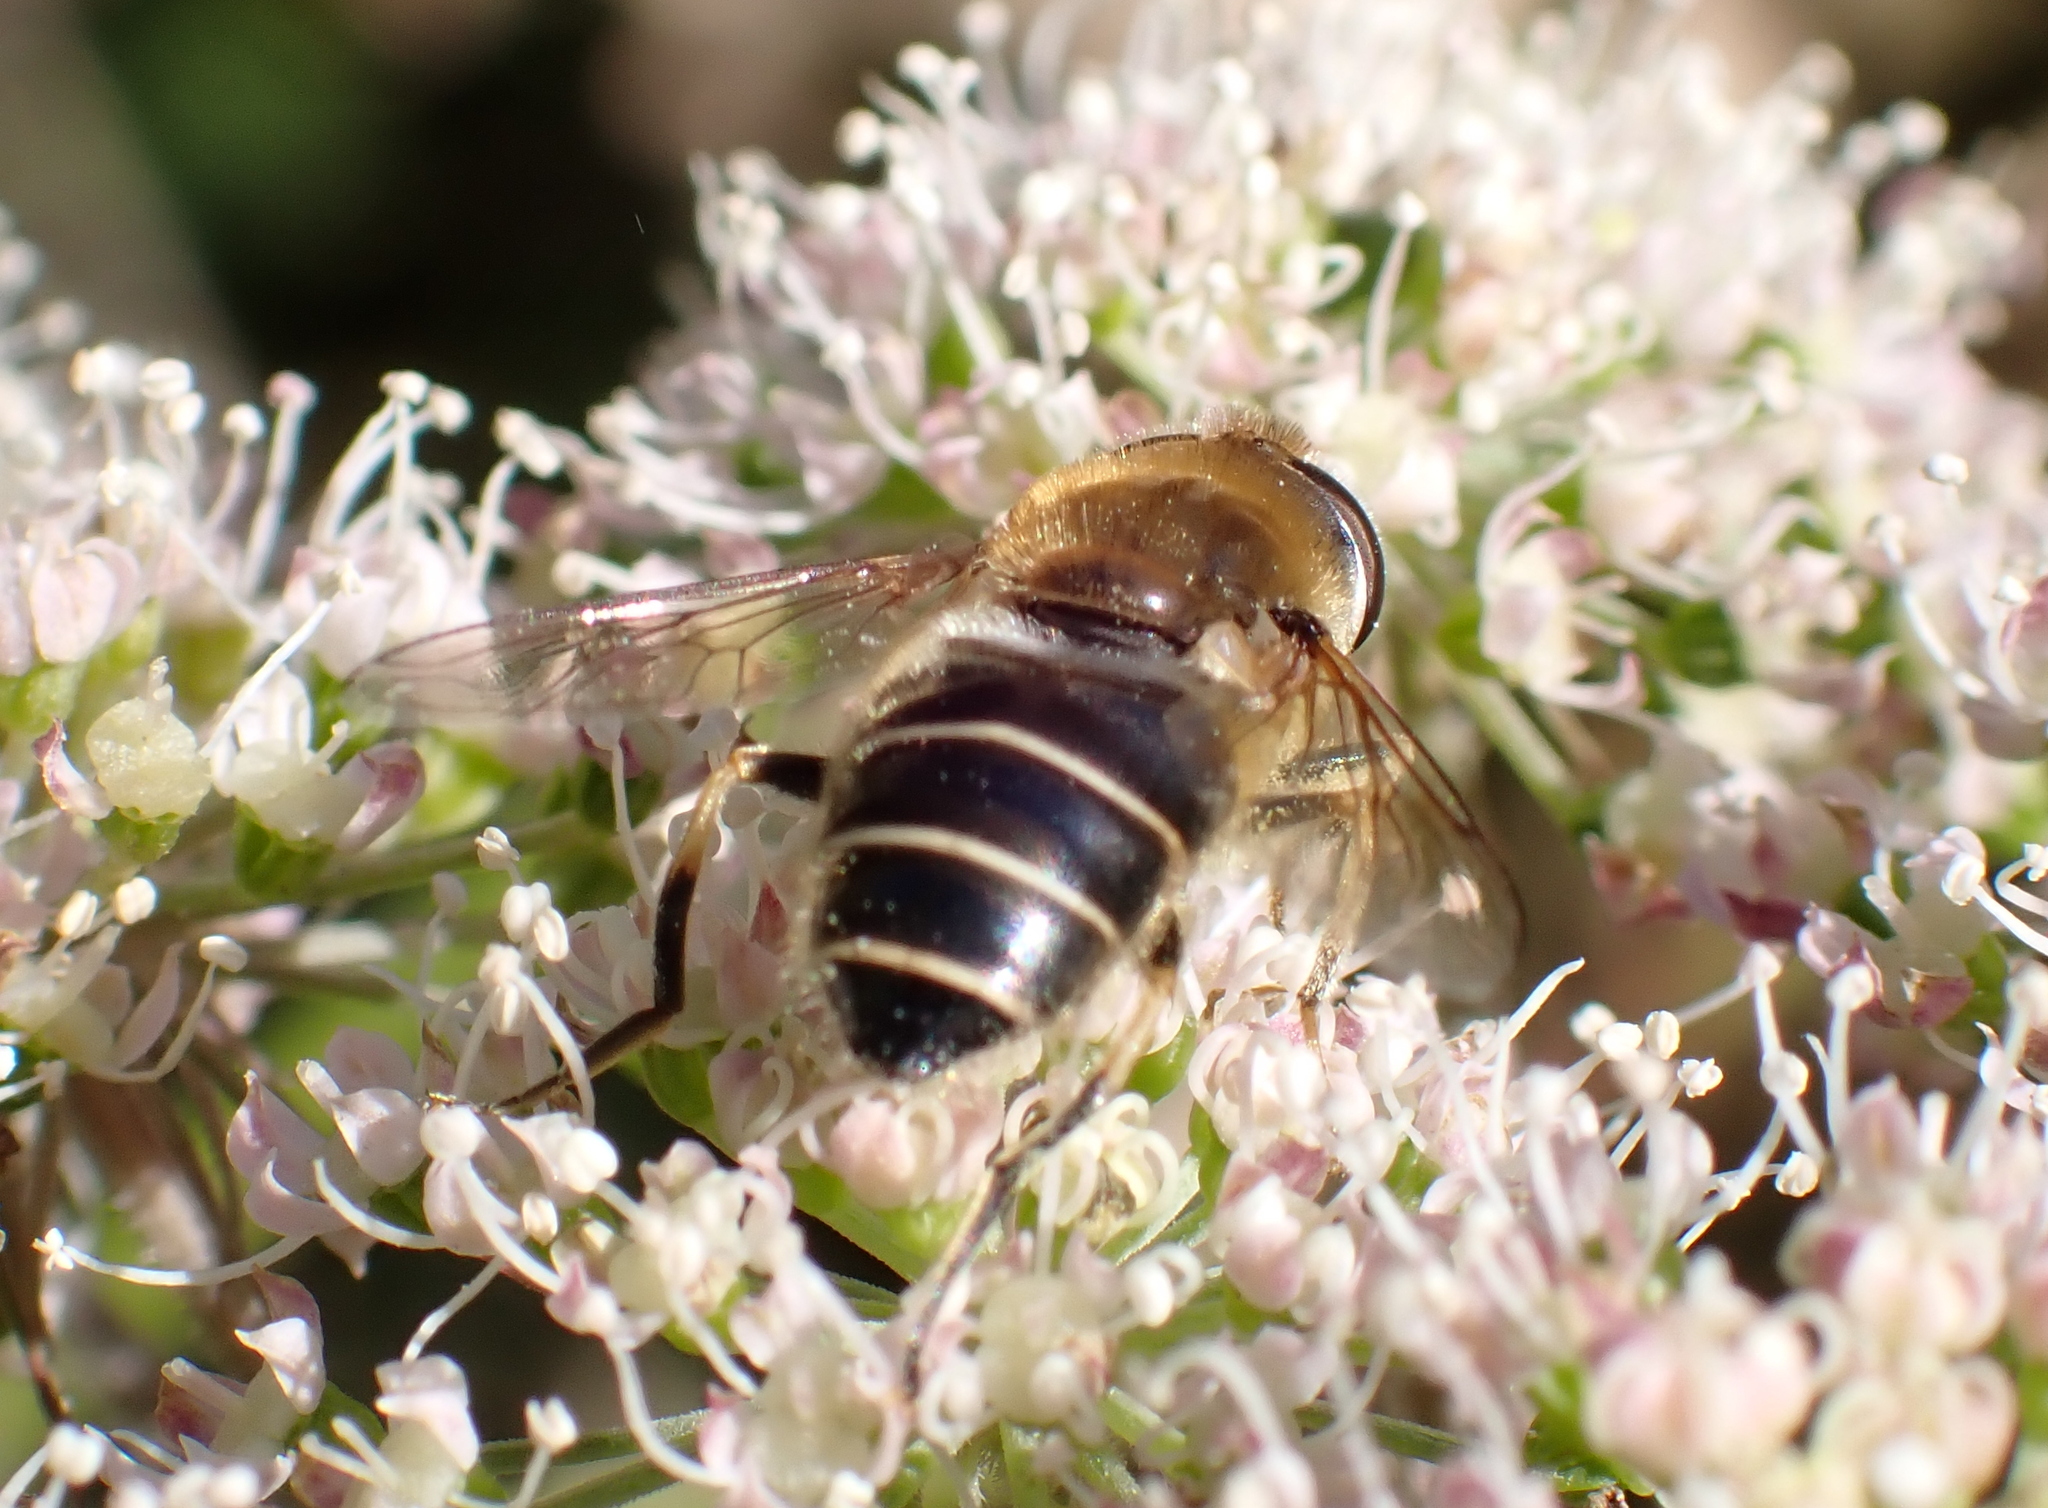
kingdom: Animalia
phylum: Arthropoda
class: Insecta
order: Diptera
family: Syrphidae
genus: Eristalis
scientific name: Eristalis nemorum
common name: Orange-spined drone fly
